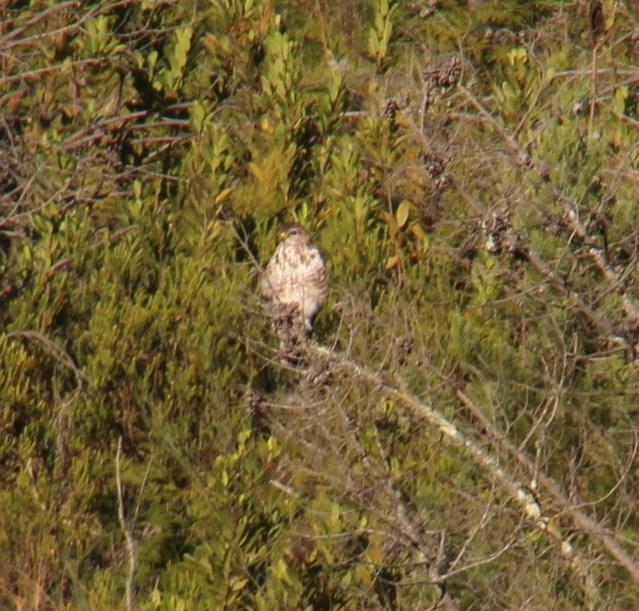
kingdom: Animalia
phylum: Chordata
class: Aves
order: Accipitriformes
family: Accipitridae
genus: Buteo
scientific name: Buteo trizonatus
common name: Forest buzzard
